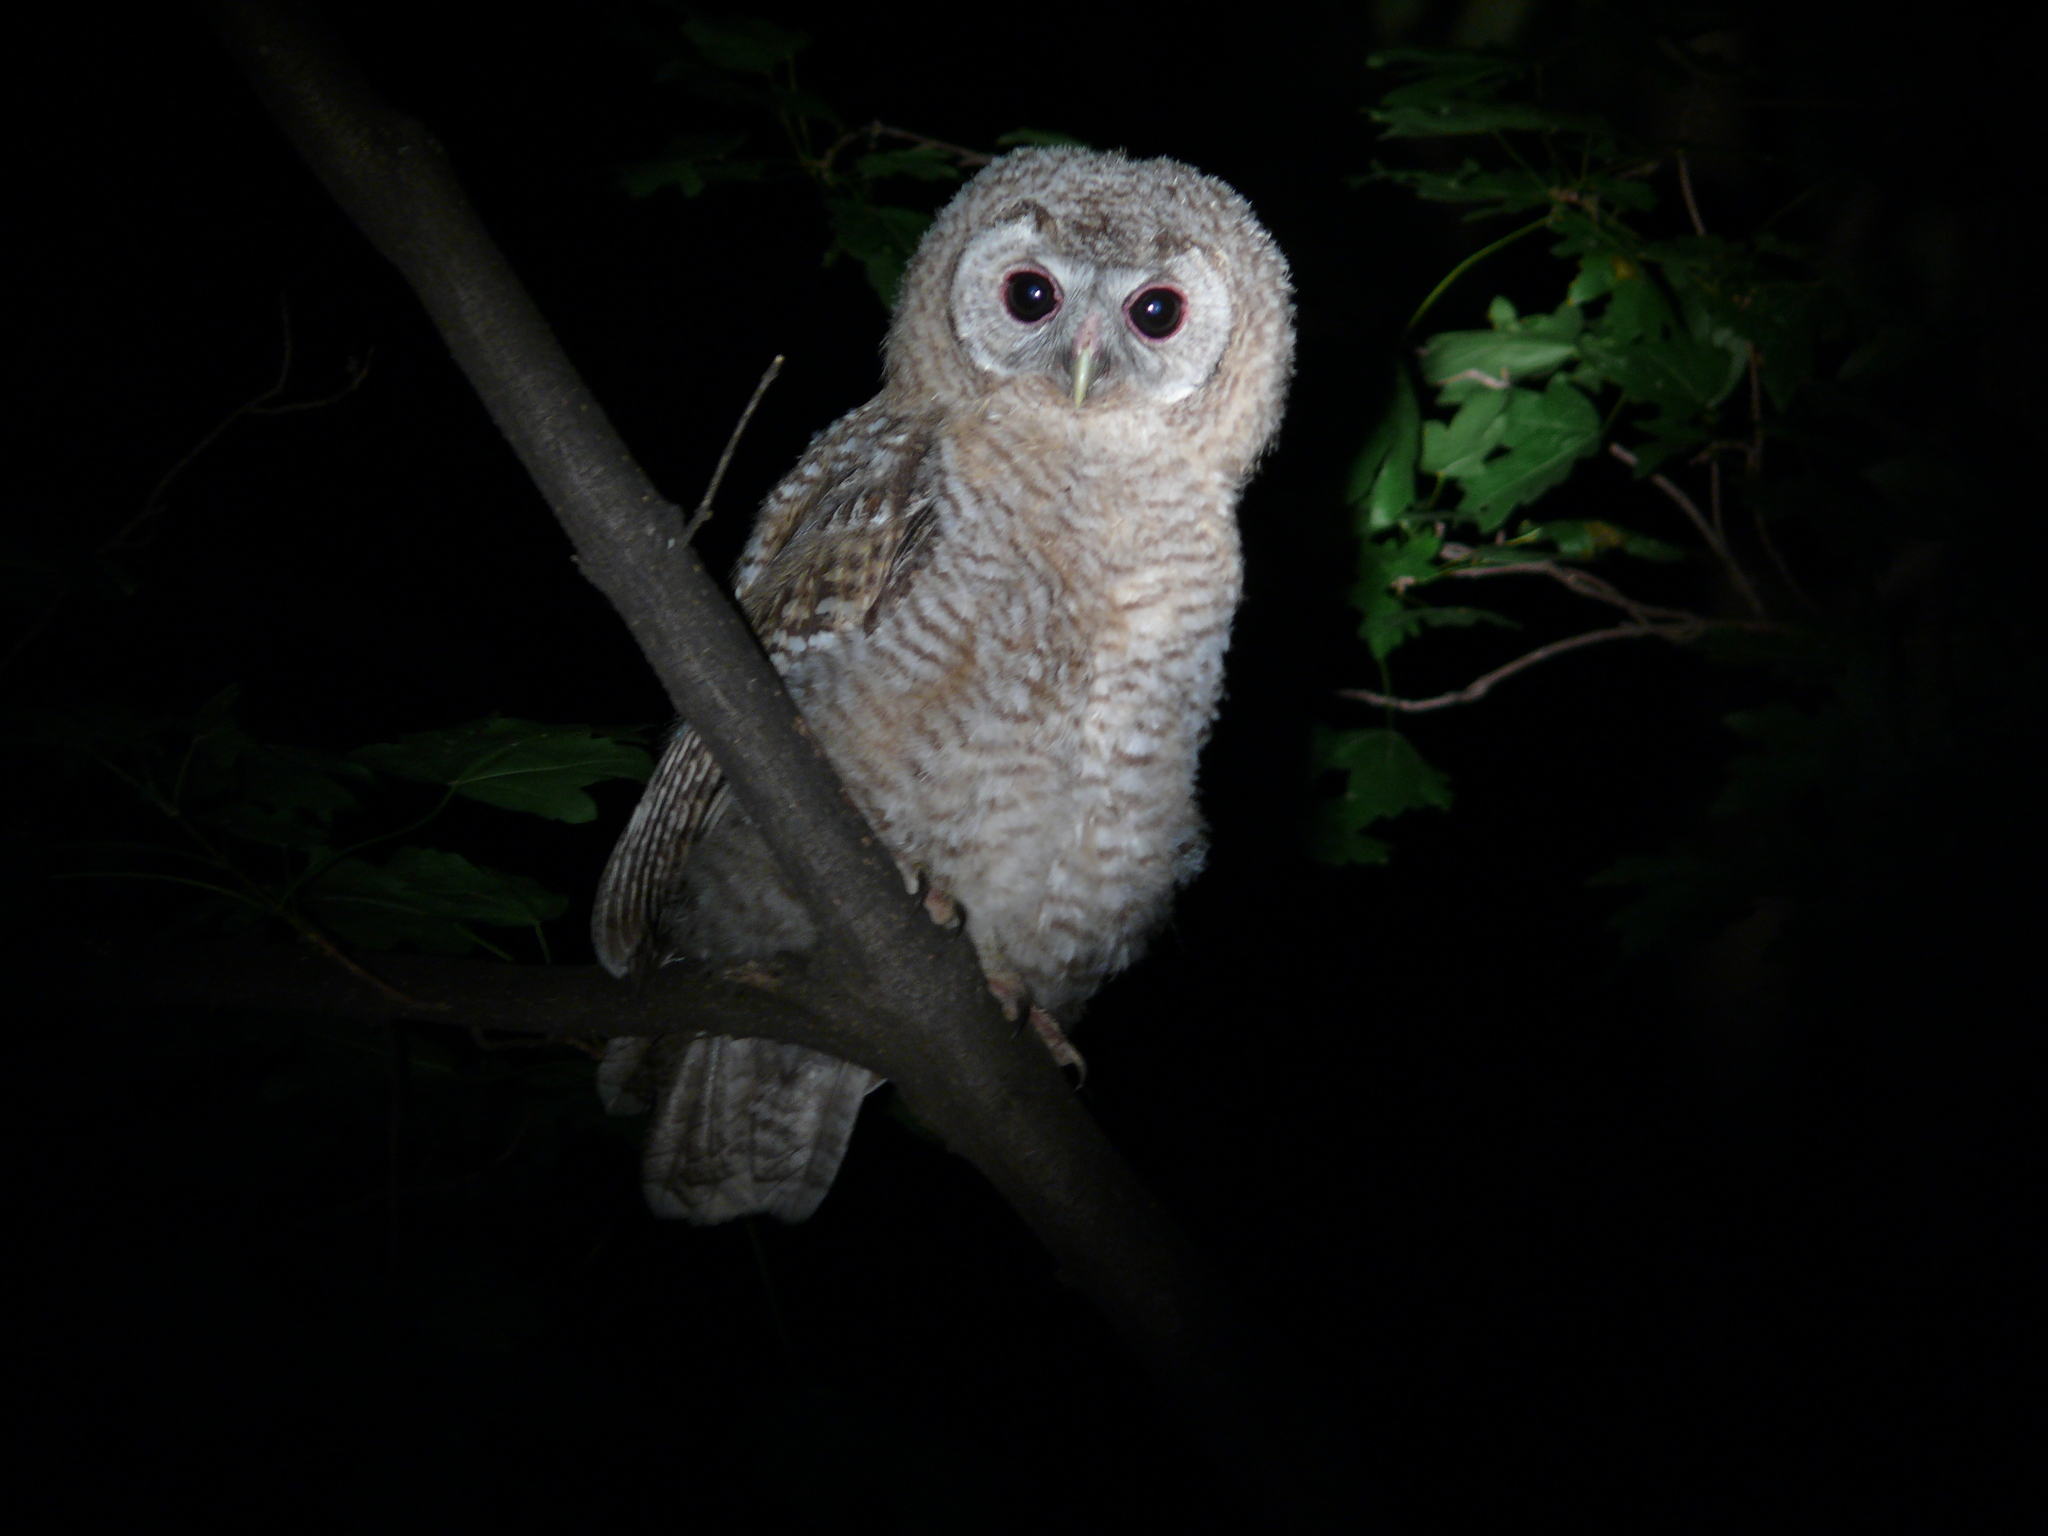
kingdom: Animalia
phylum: Chordata
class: Aves
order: Strigiformes
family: Strigidae
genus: Strix
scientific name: Strix aluco
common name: Tawny owl
